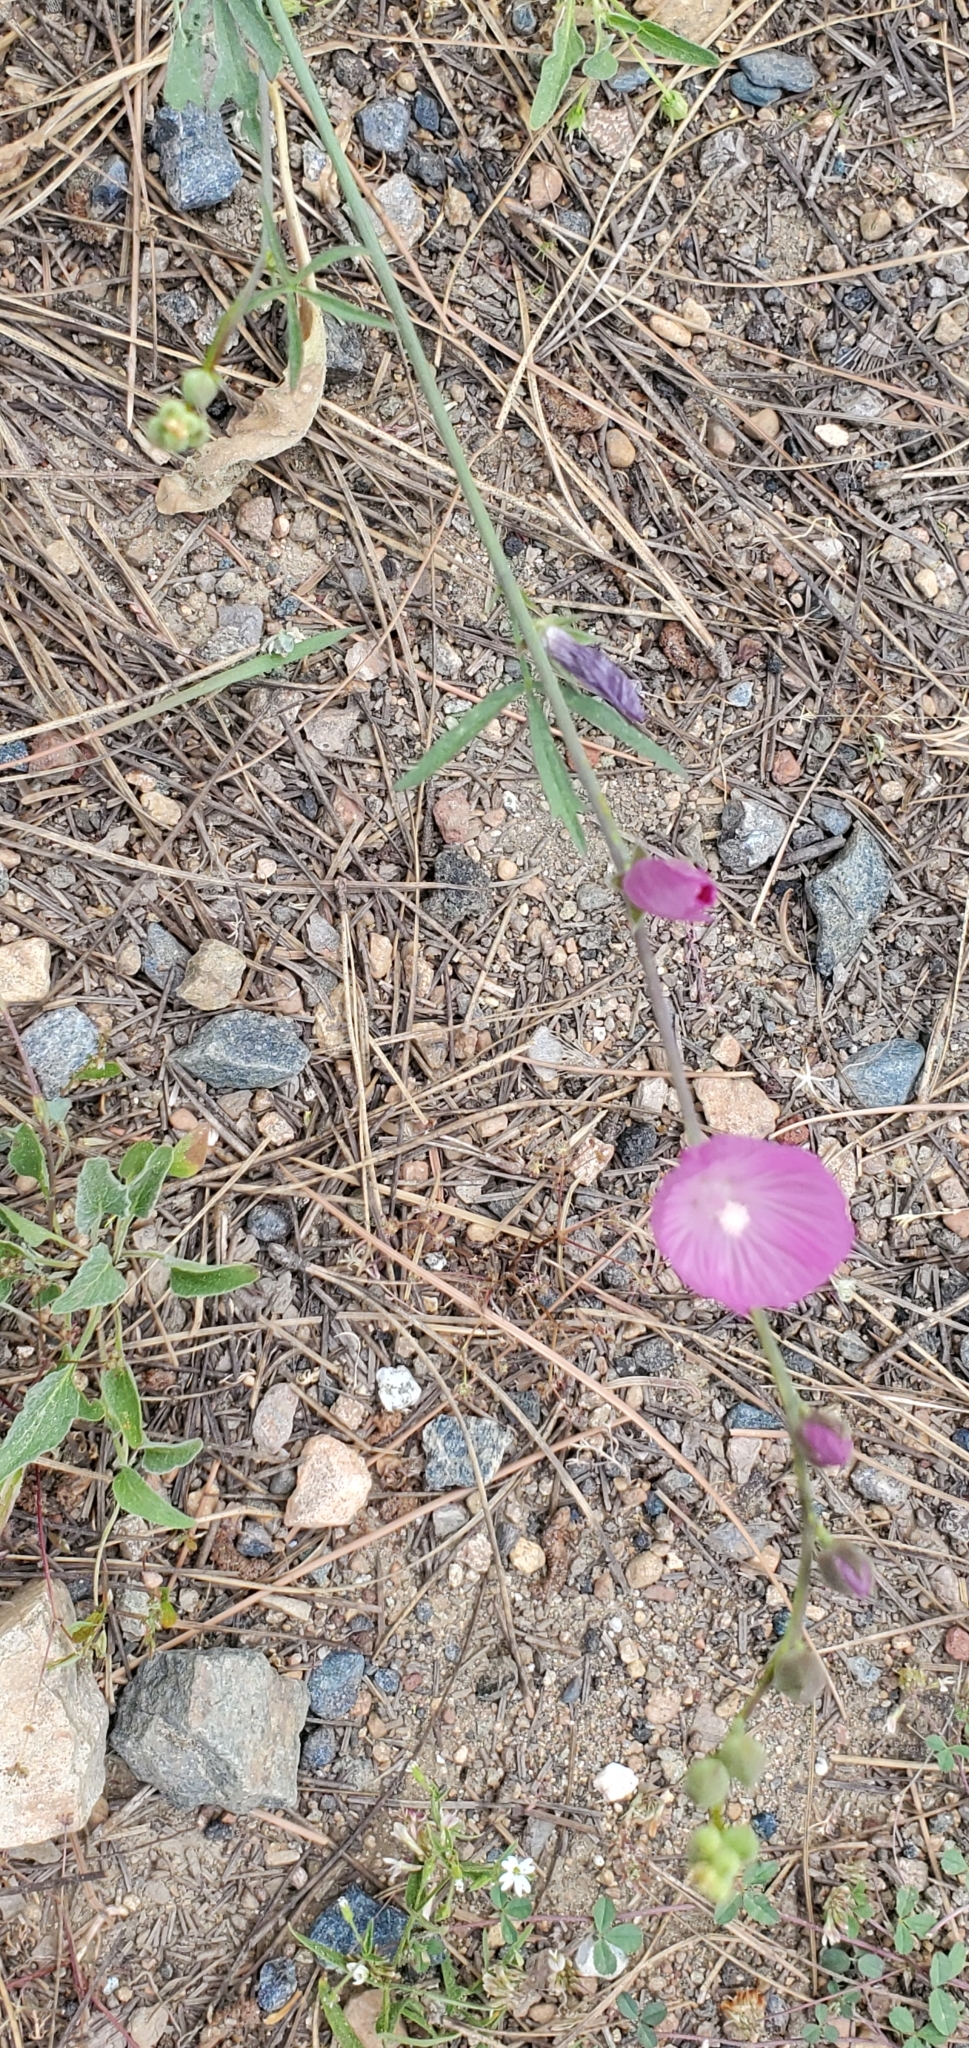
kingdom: Plantae
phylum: Tracheophyta
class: Magnoliopsida
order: Malvales
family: Malvaceae
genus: Sidalcea
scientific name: Sidalcea glaucescens
